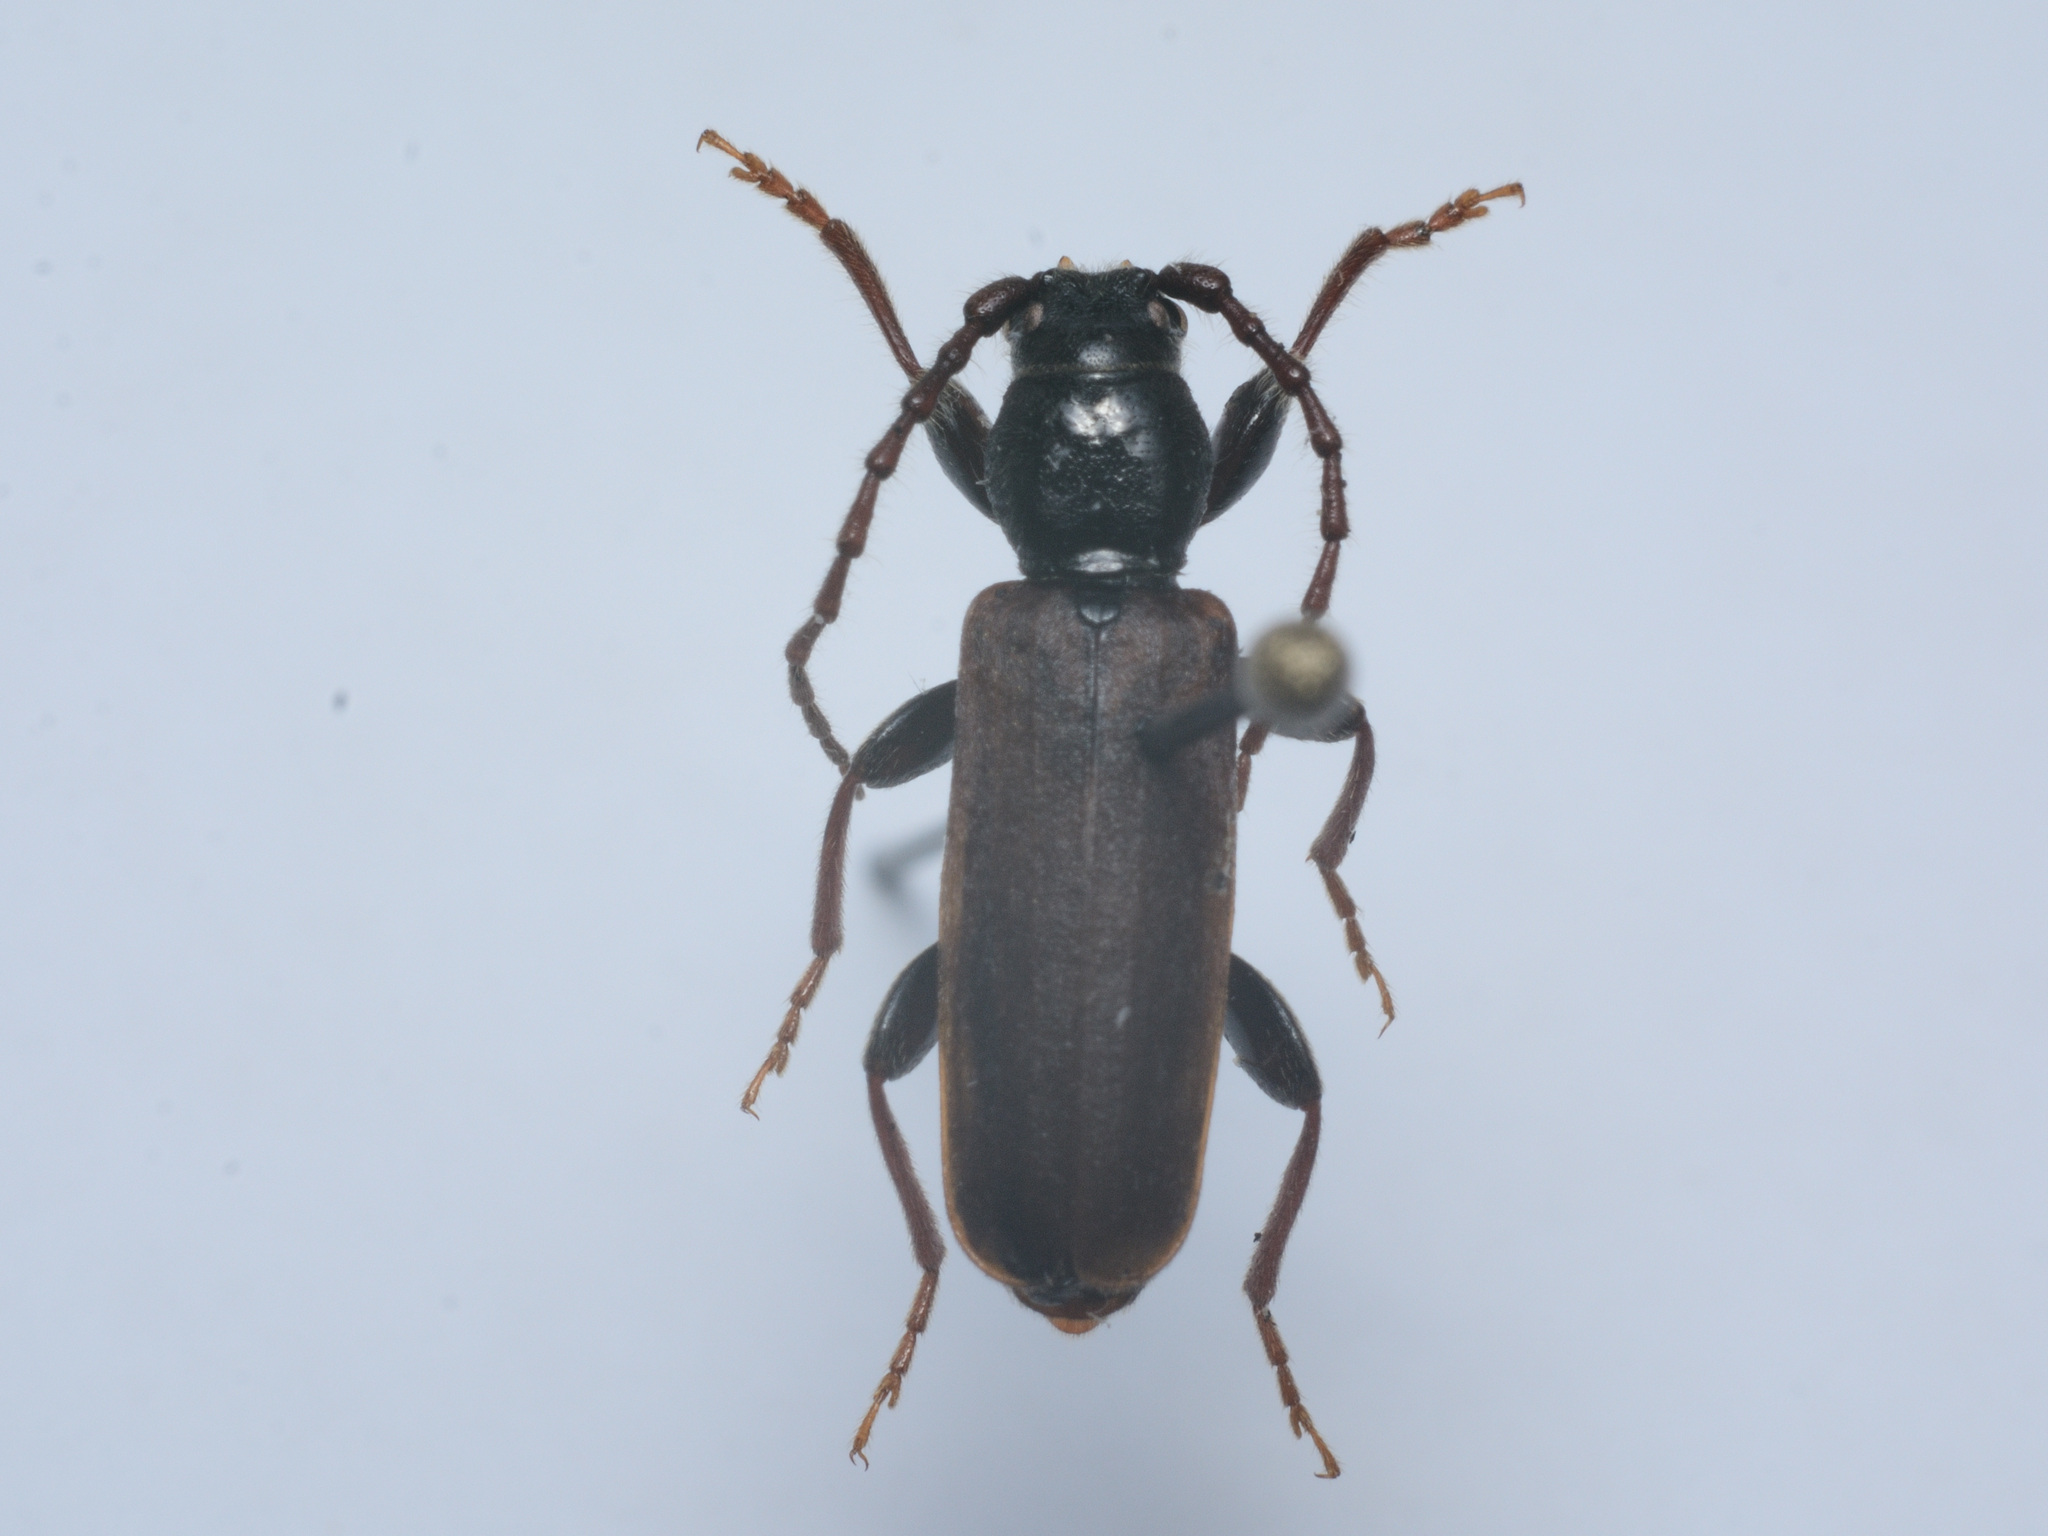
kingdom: Animalia
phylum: Arthropoda
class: Insecta
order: Coleoptera
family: Cerambycidae
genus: Tetropium
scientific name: Tetropium castaneum
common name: Long-horned beetle
